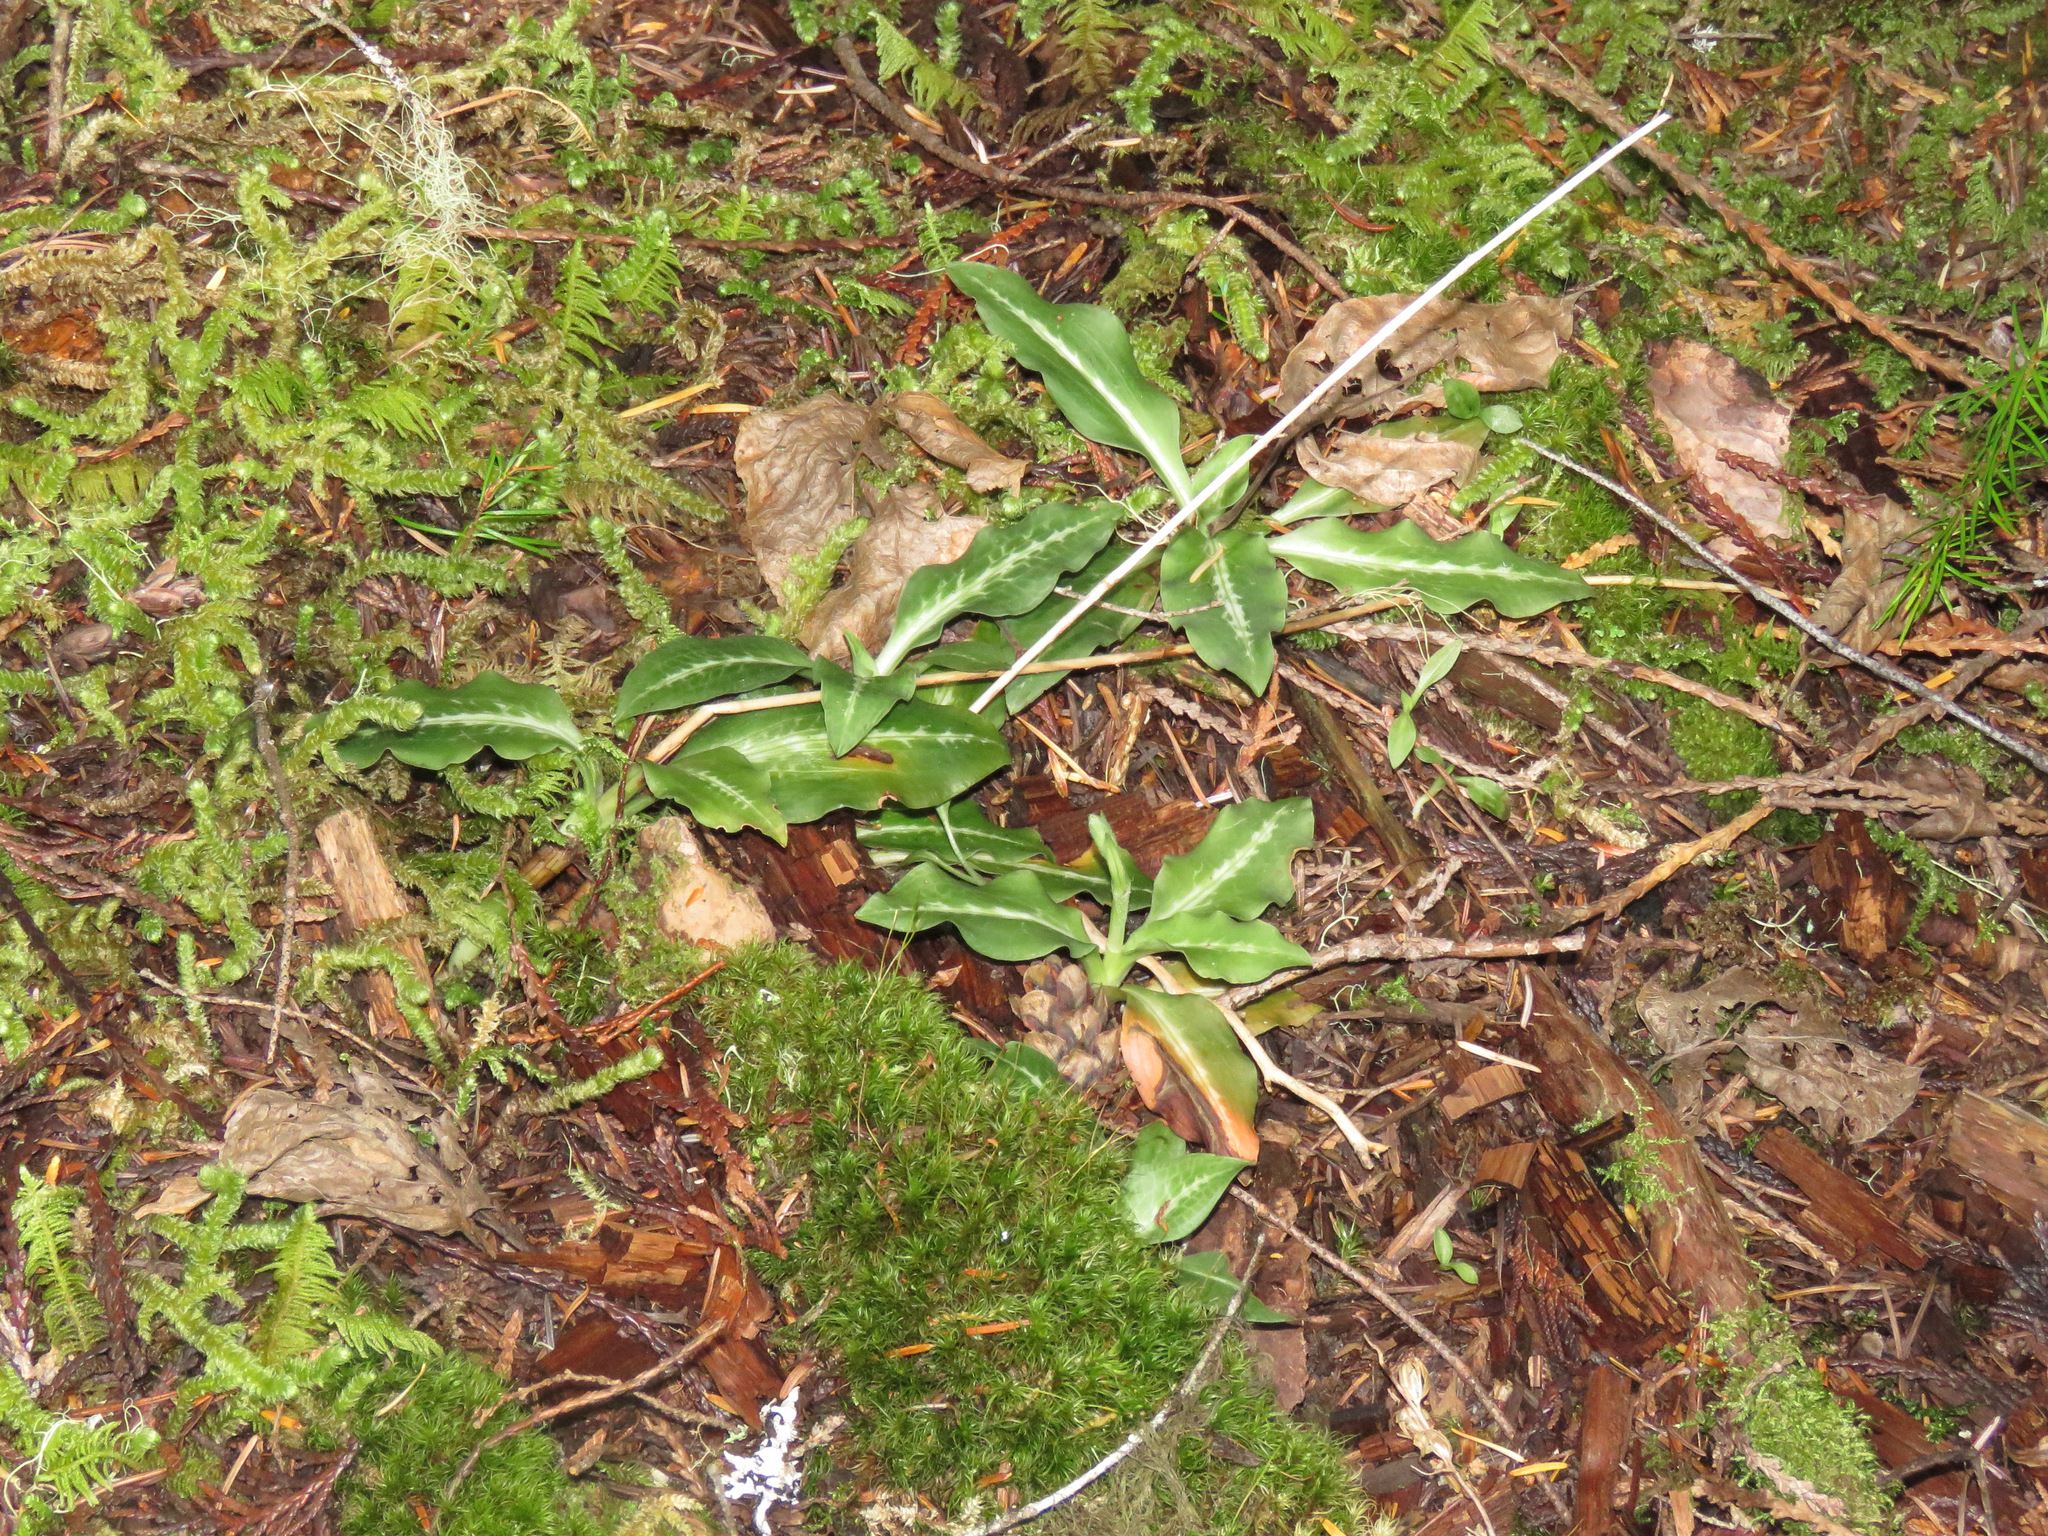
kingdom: Plantae
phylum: Tracheophyta
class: Liliopsida
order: Asparagales
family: Orchidaceae
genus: Goodyera
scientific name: Goodyera oblongifolia
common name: Giant rattlesnake-plantain
